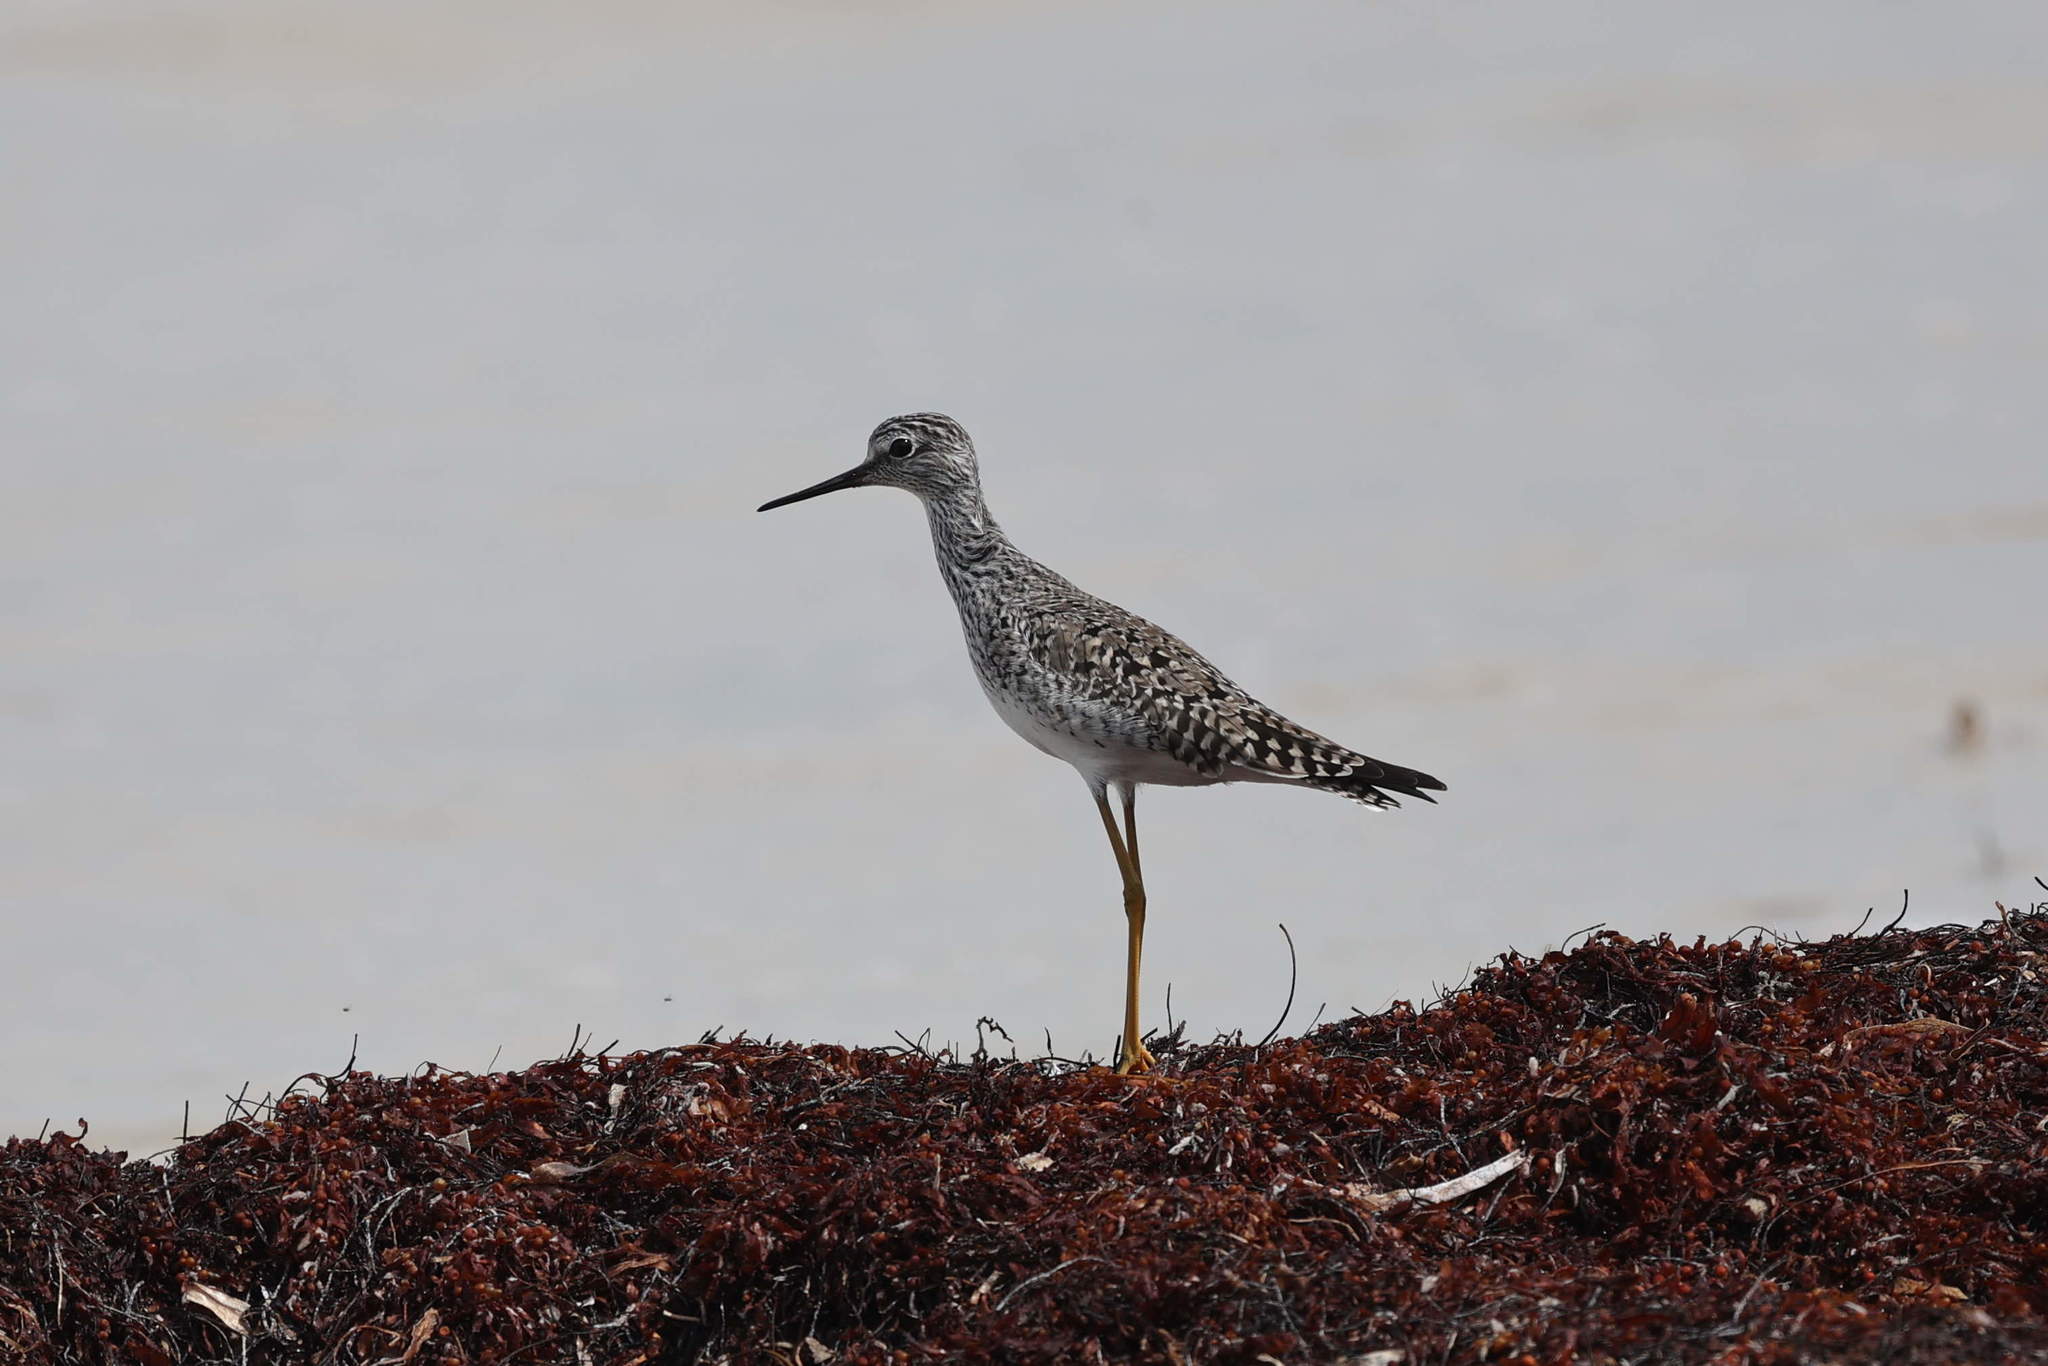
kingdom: Animalia
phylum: Chordata
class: Aves
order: Charadriiformes
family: Scolopacidae
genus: Tringa
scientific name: Tringa flavipes
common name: Lesser yellowlegs
